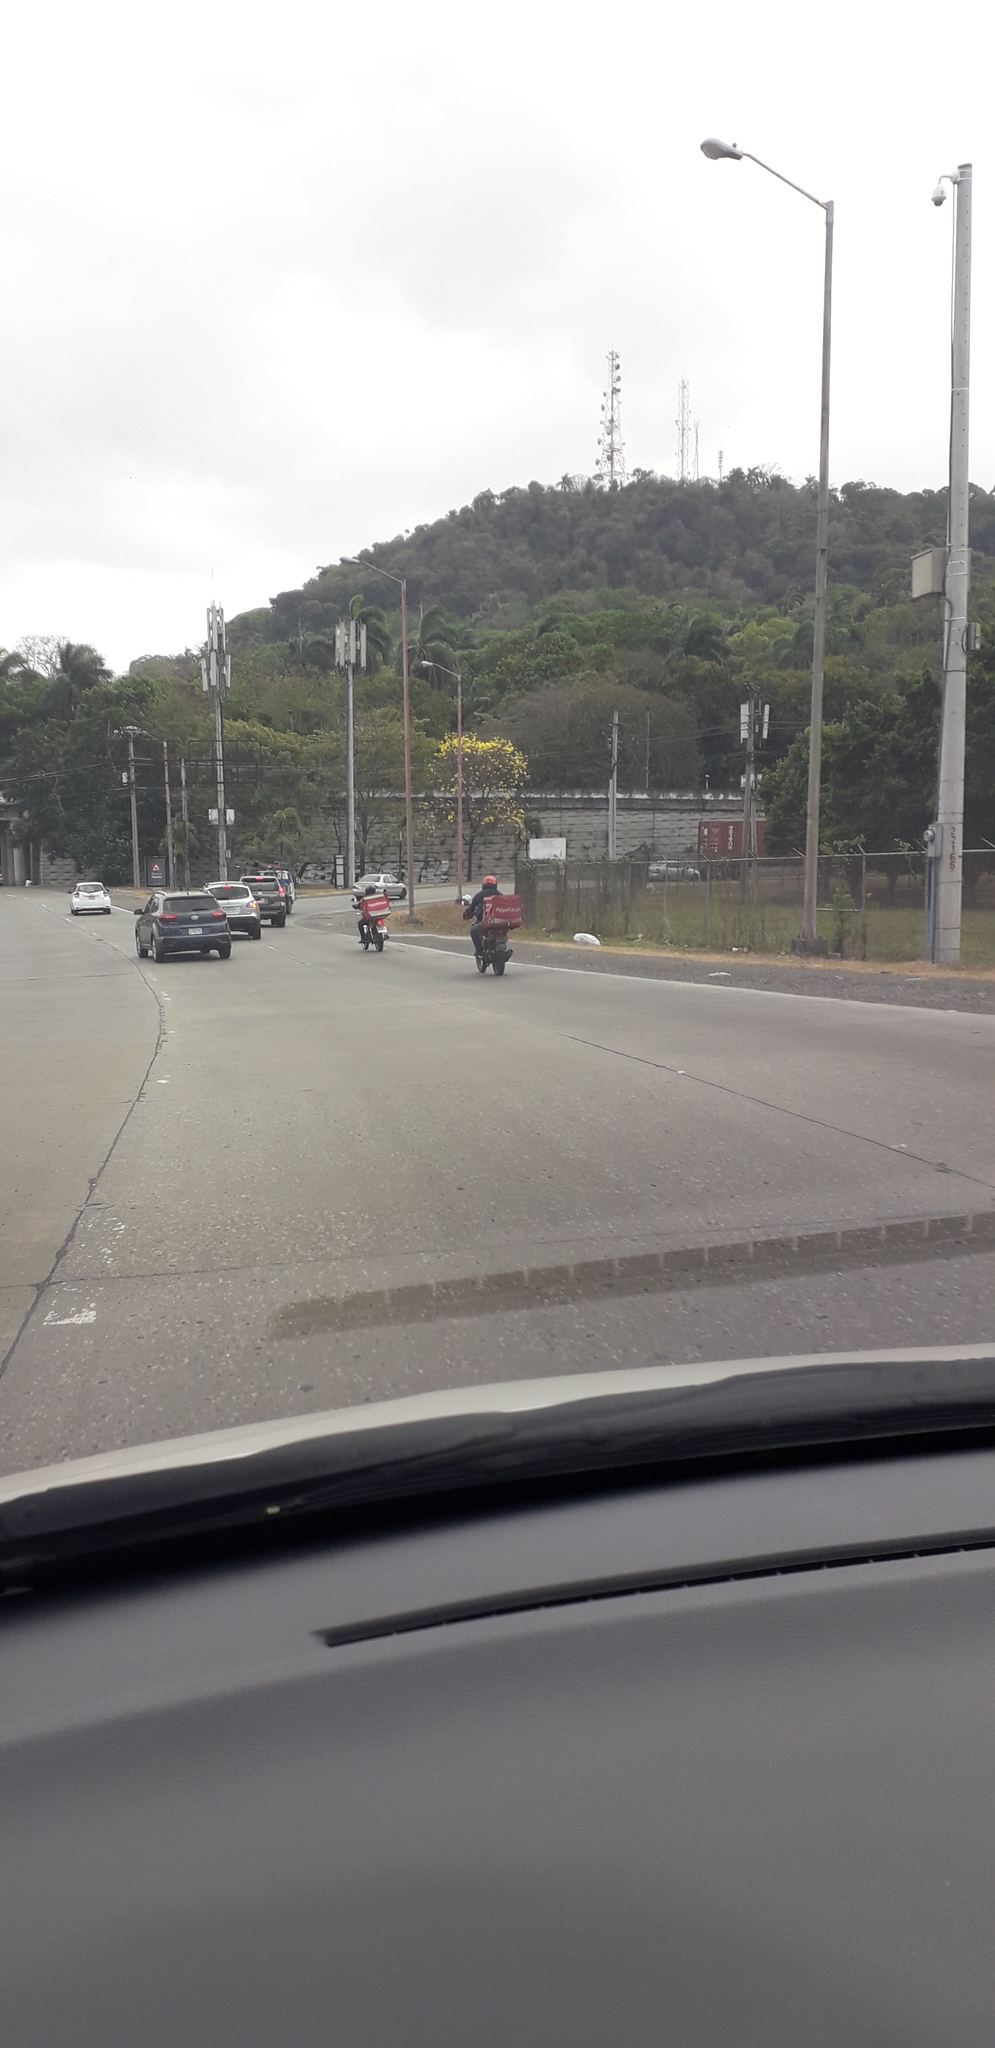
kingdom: Plantae
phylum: Tracheophyta
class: Magnoliopsida
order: Lamiales
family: Bignoniaceae
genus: Handroanthus
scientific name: Handroanthus guayacan
